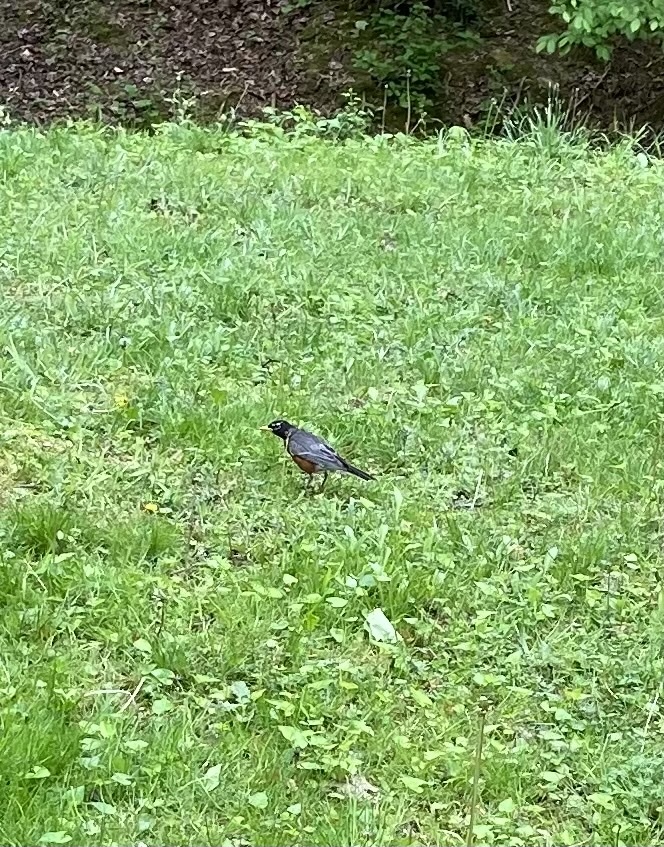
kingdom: Animalia
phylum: Chordata
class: Aves
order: Passeriformes
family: Turdidae
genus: Turdus
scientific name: Turdus migratorius
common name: American robin
